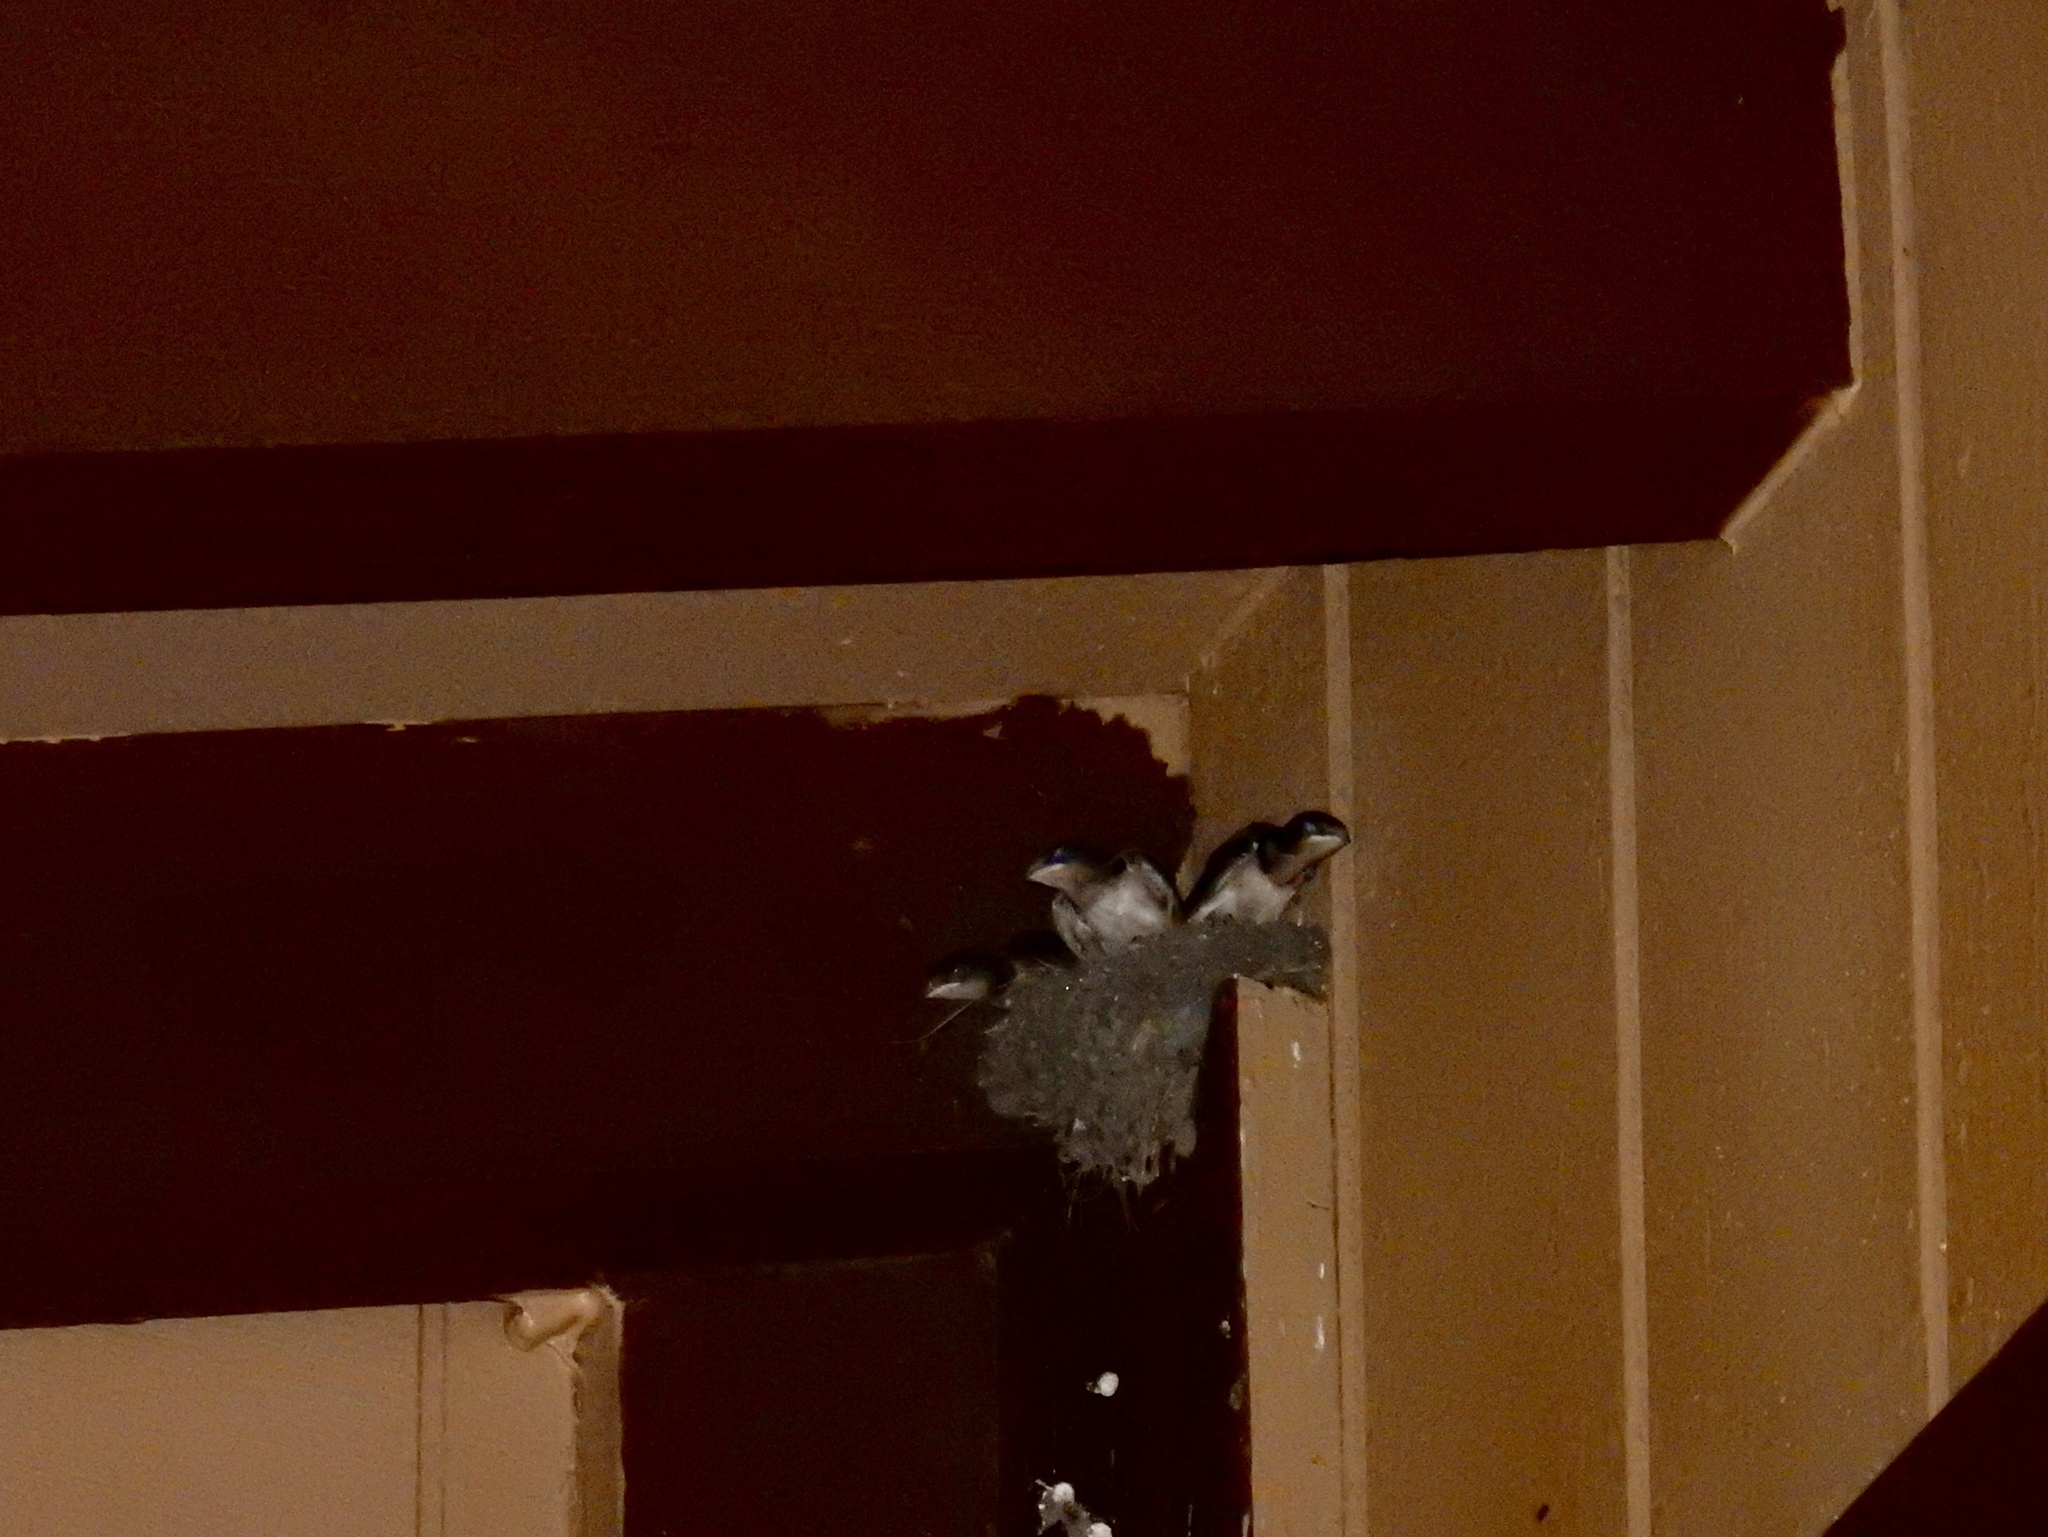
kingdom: Animalia
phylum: Chordata
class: Aves
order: Passeriformes
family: Hirundinidae
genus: Hirundo
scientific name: Hirundo rustica
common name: Barn swallow
